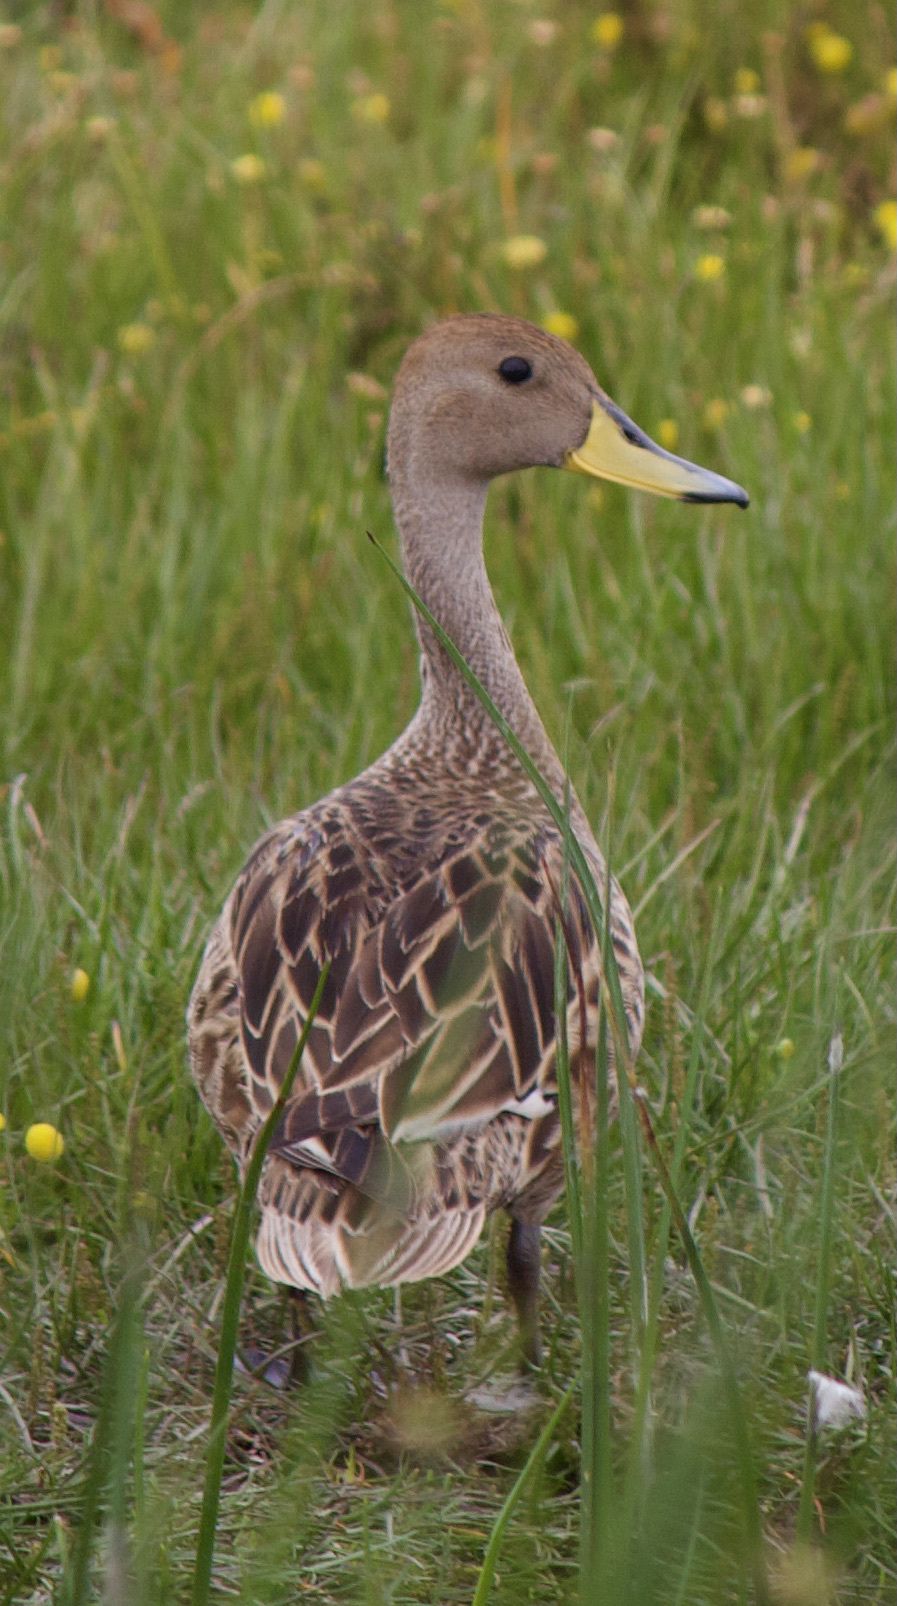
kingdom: Animalia
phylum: Chordata
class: Aves
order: Anseriformes
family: Anatidae
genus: Anas
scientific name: Anas georgica
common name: Yellow-billed pintail
